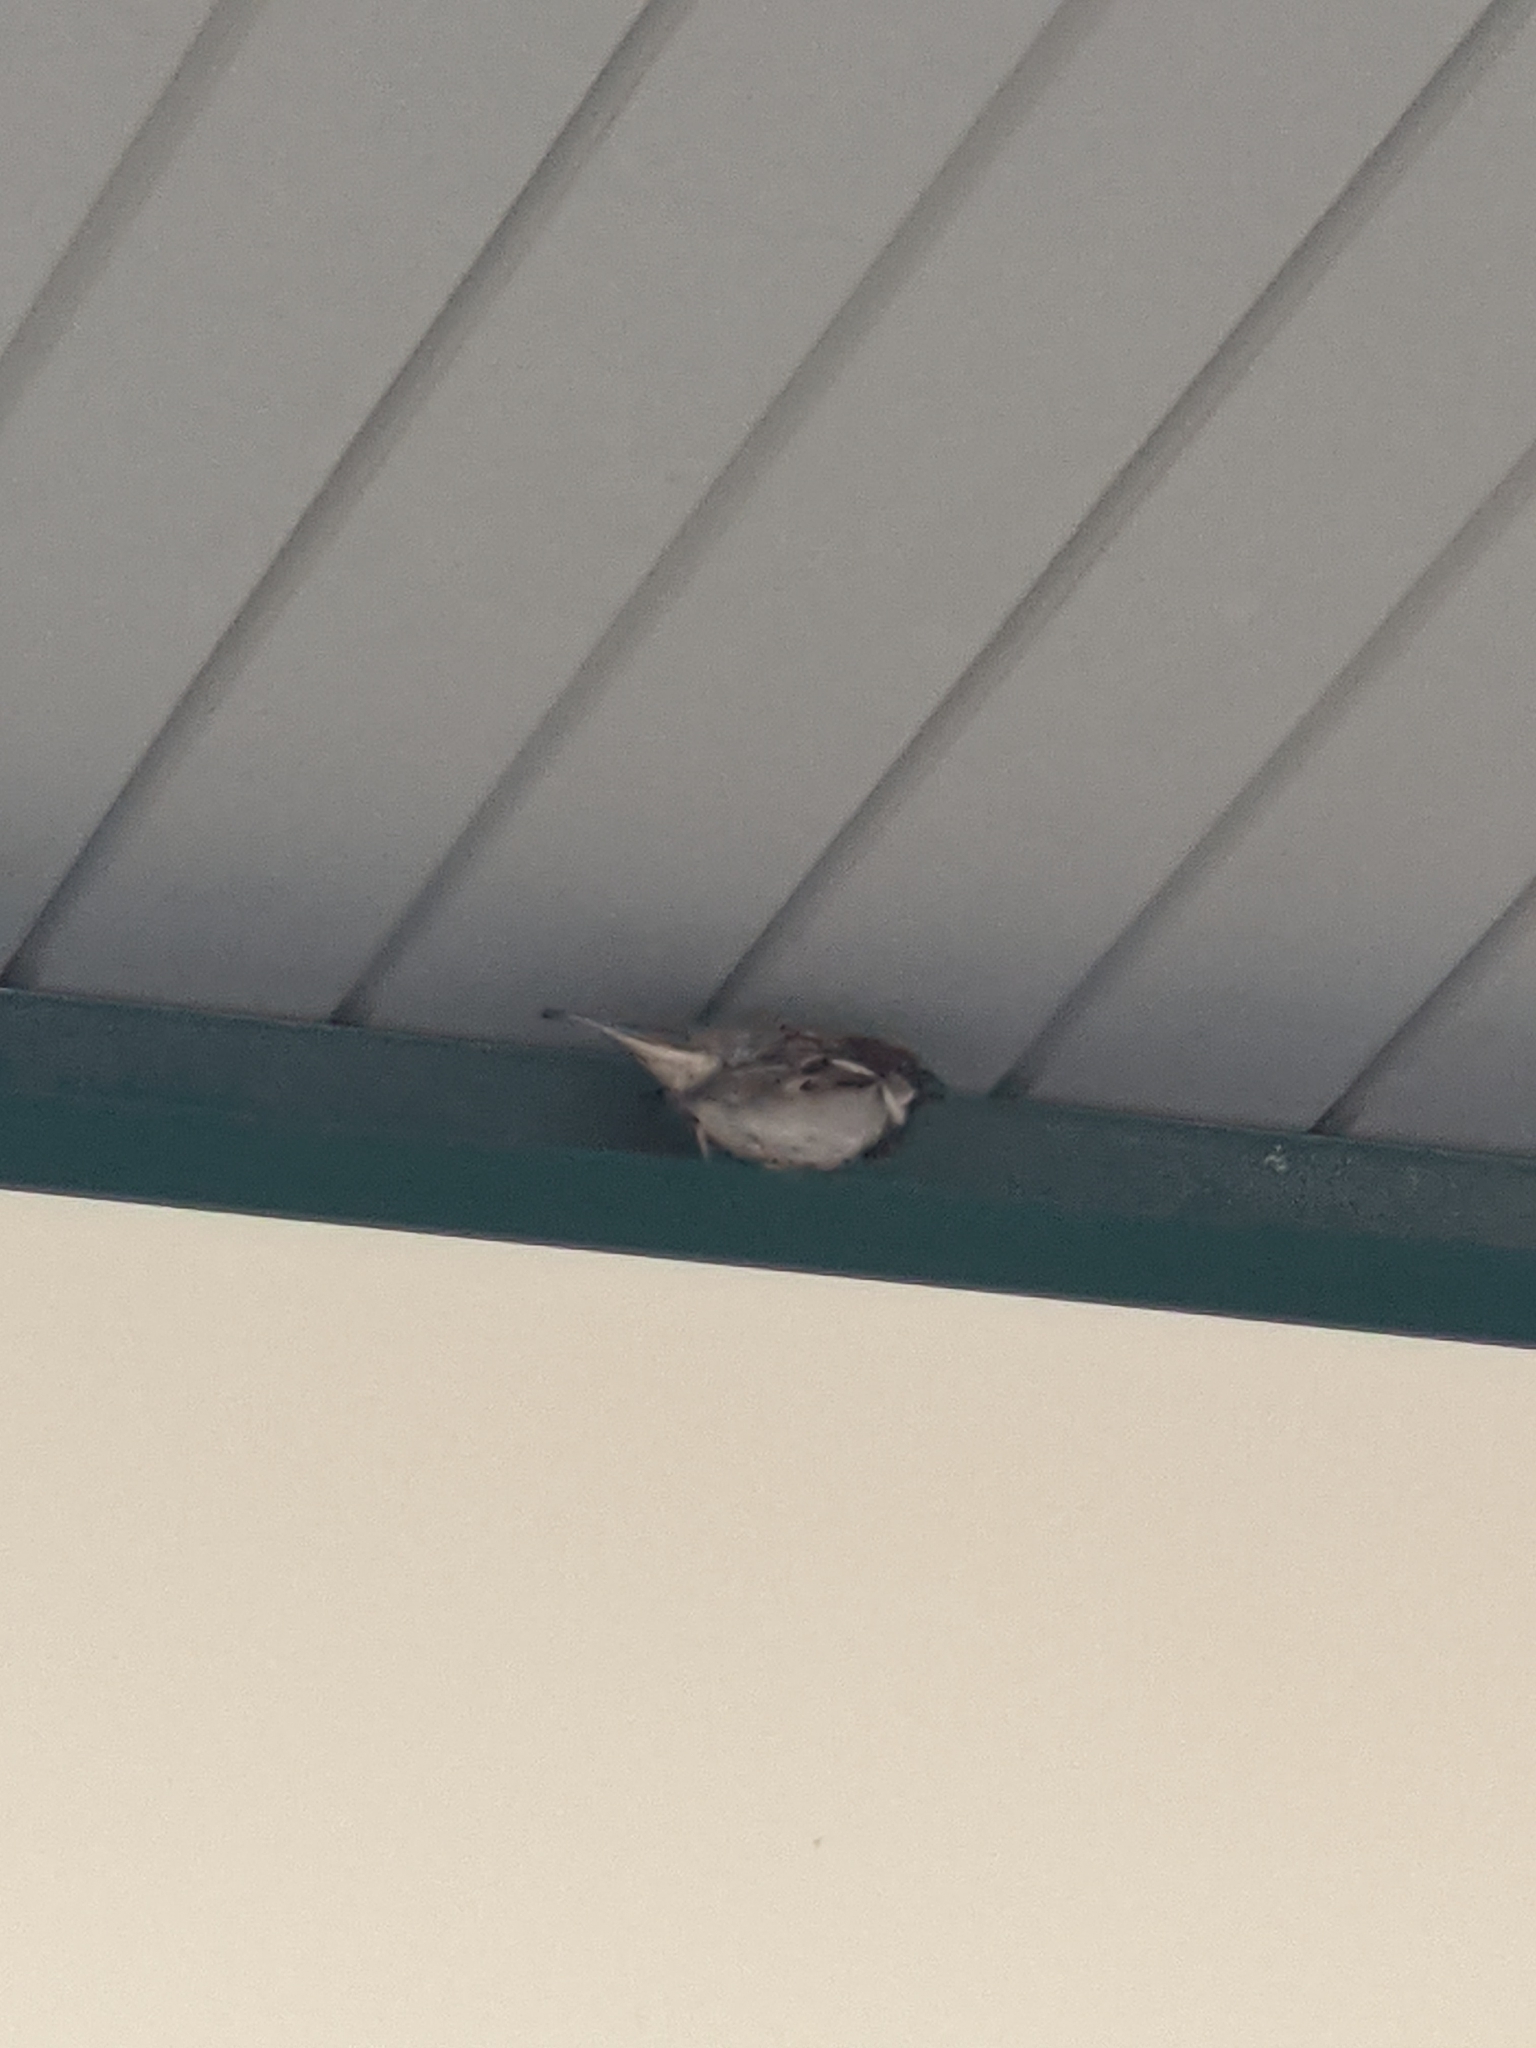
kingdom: Animalia
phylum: Chordata
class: Aves
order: Passeriformes
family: Passeridae
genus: Passer
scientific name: Passer domesticus
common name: House sparrow
